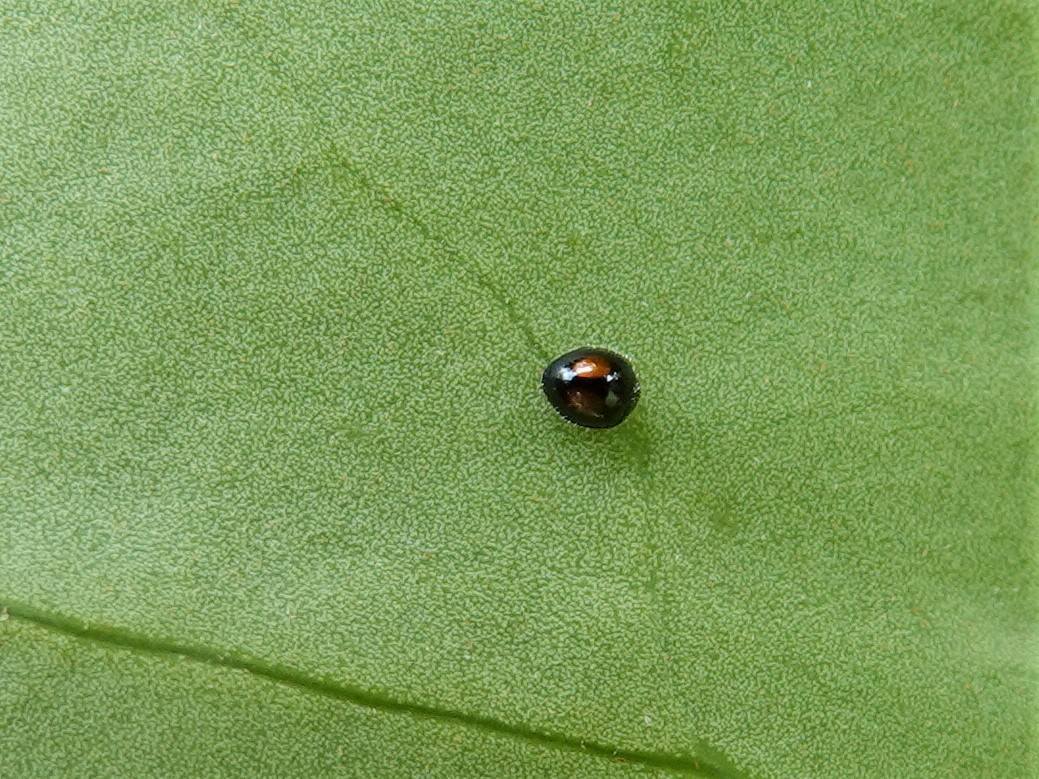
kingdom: Animalia
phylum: Arthropoda
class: Insecta
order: Coleoptera
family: Coccinellidae
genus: Serangium
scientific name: Serangium maculigerum
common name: Lady beetle
